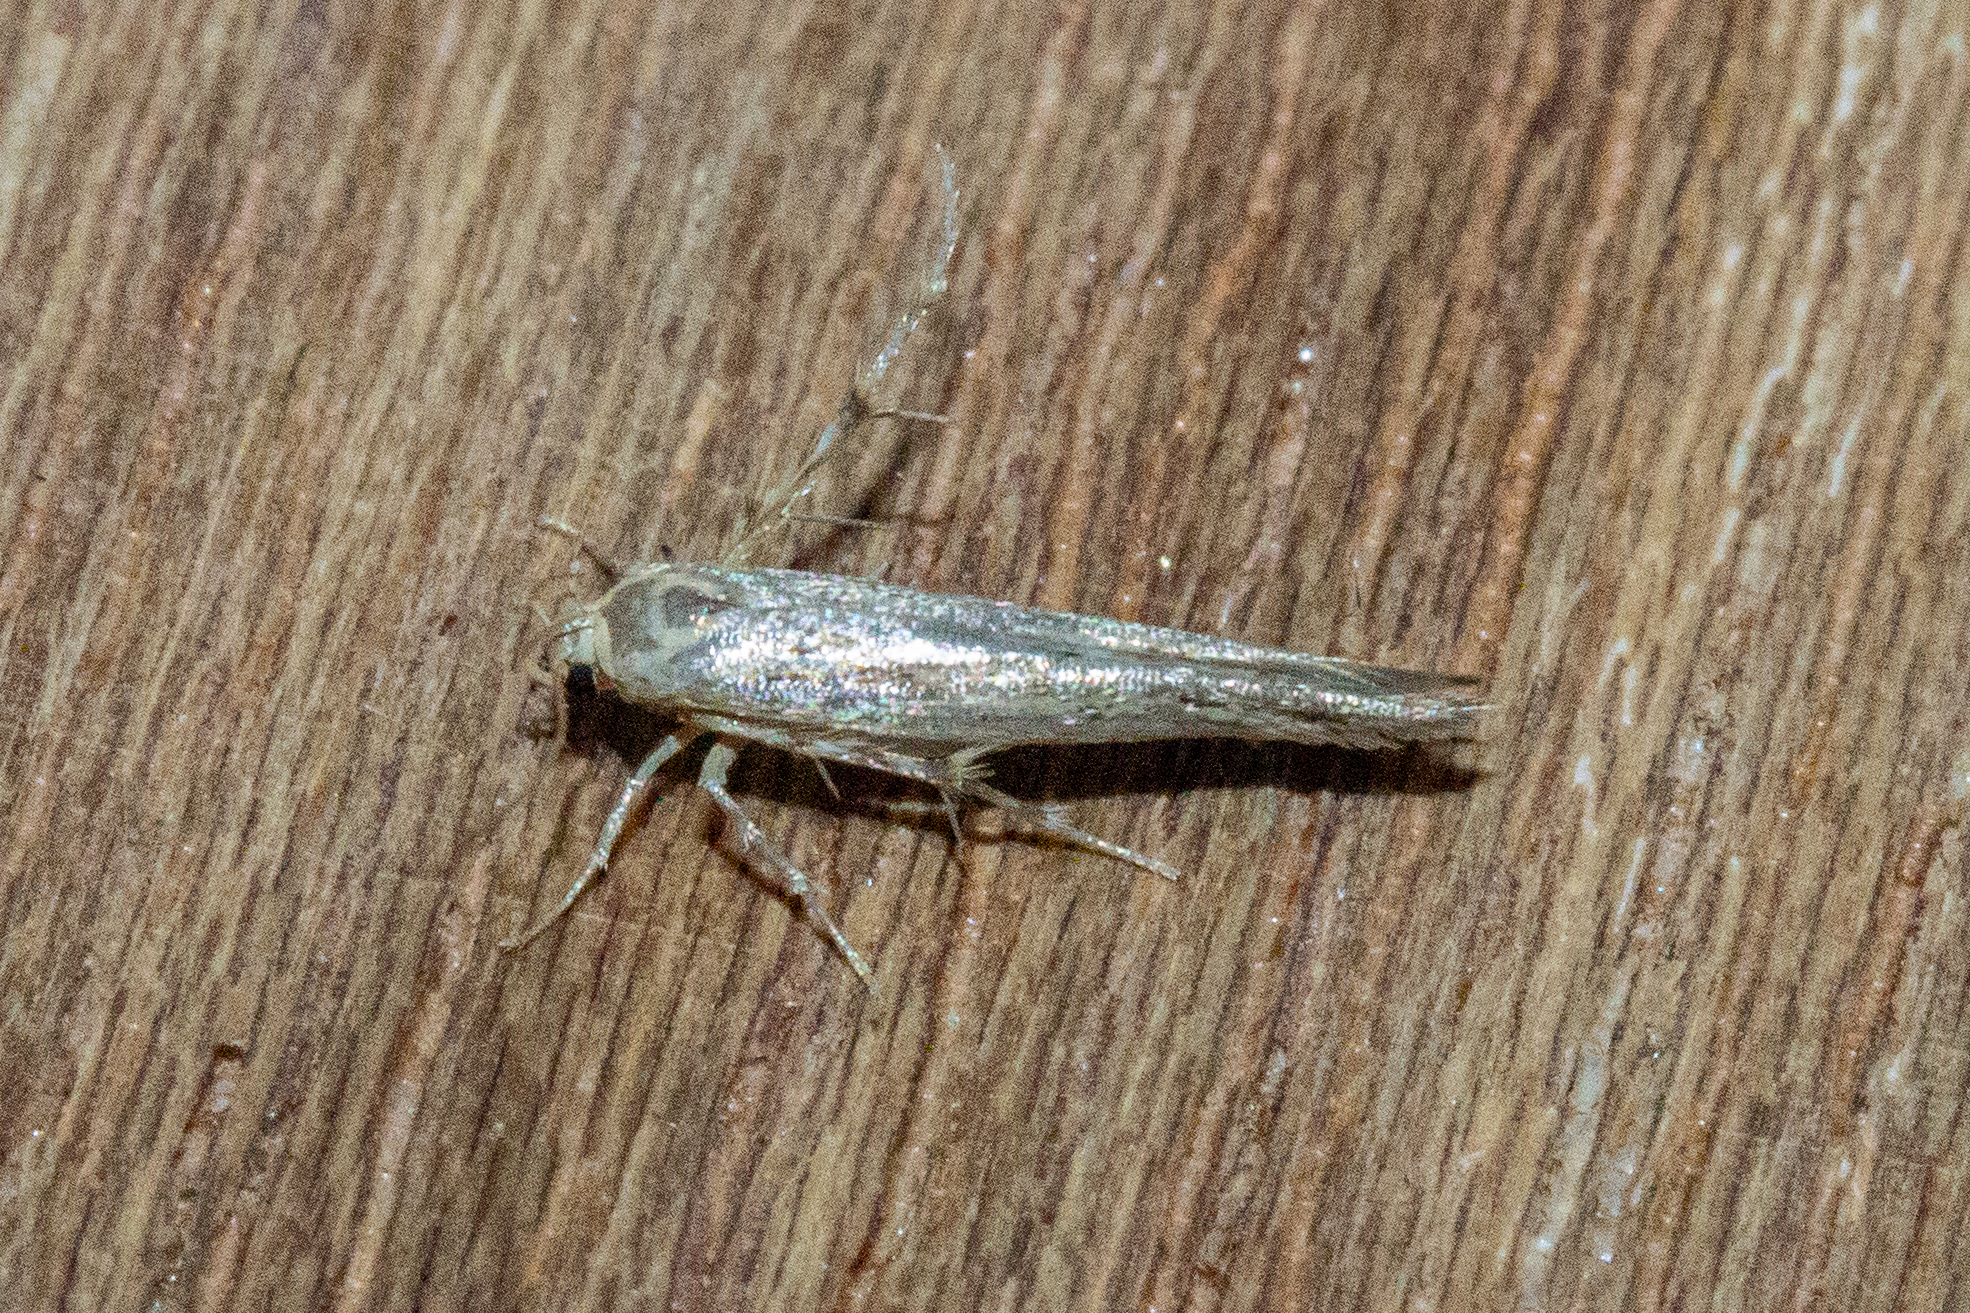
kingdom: Animalia
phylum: Arthropoda
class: Insecta
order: Lepidoptera
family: Stathmopodidae
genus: Stathmopoda
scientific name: Stathmopoda horticola
